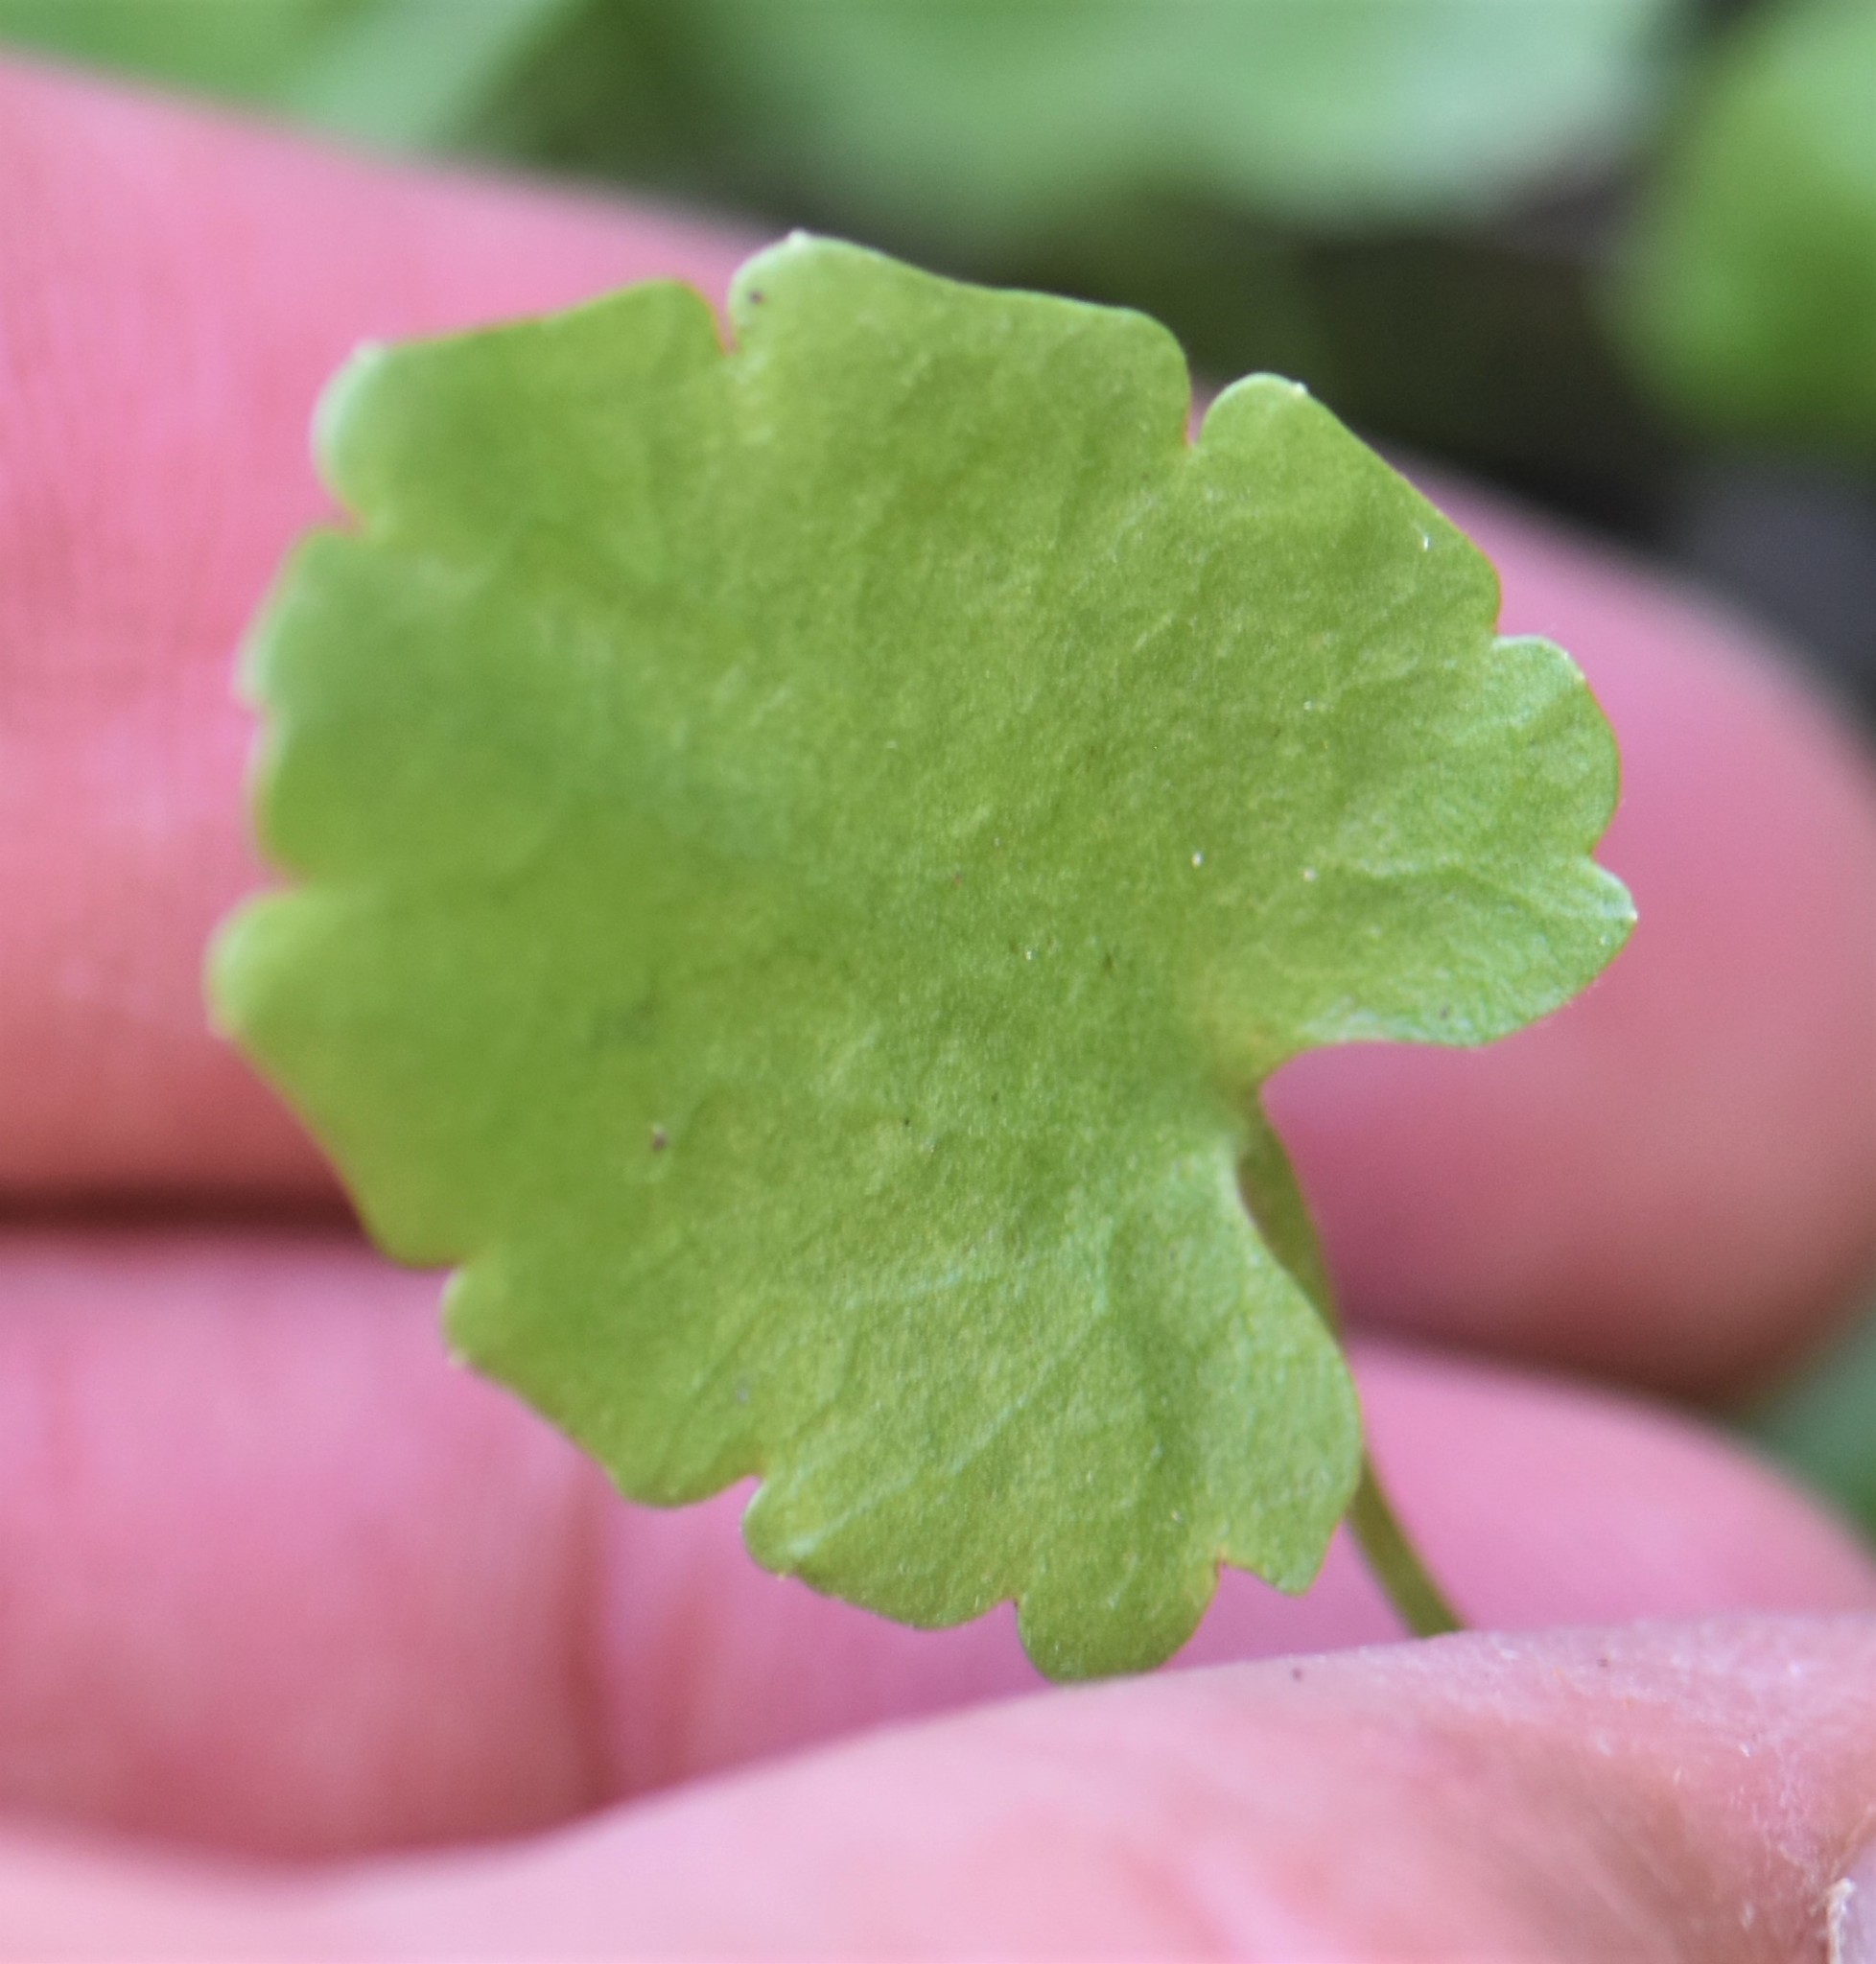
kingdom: Plantae
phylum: Tracheophyta
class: Magnoliopsida
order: Ranunculales
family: Ranunculaceae
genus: Halerpestes
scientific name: Halerpestes cymbalaria
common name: Seaside crowfoot
